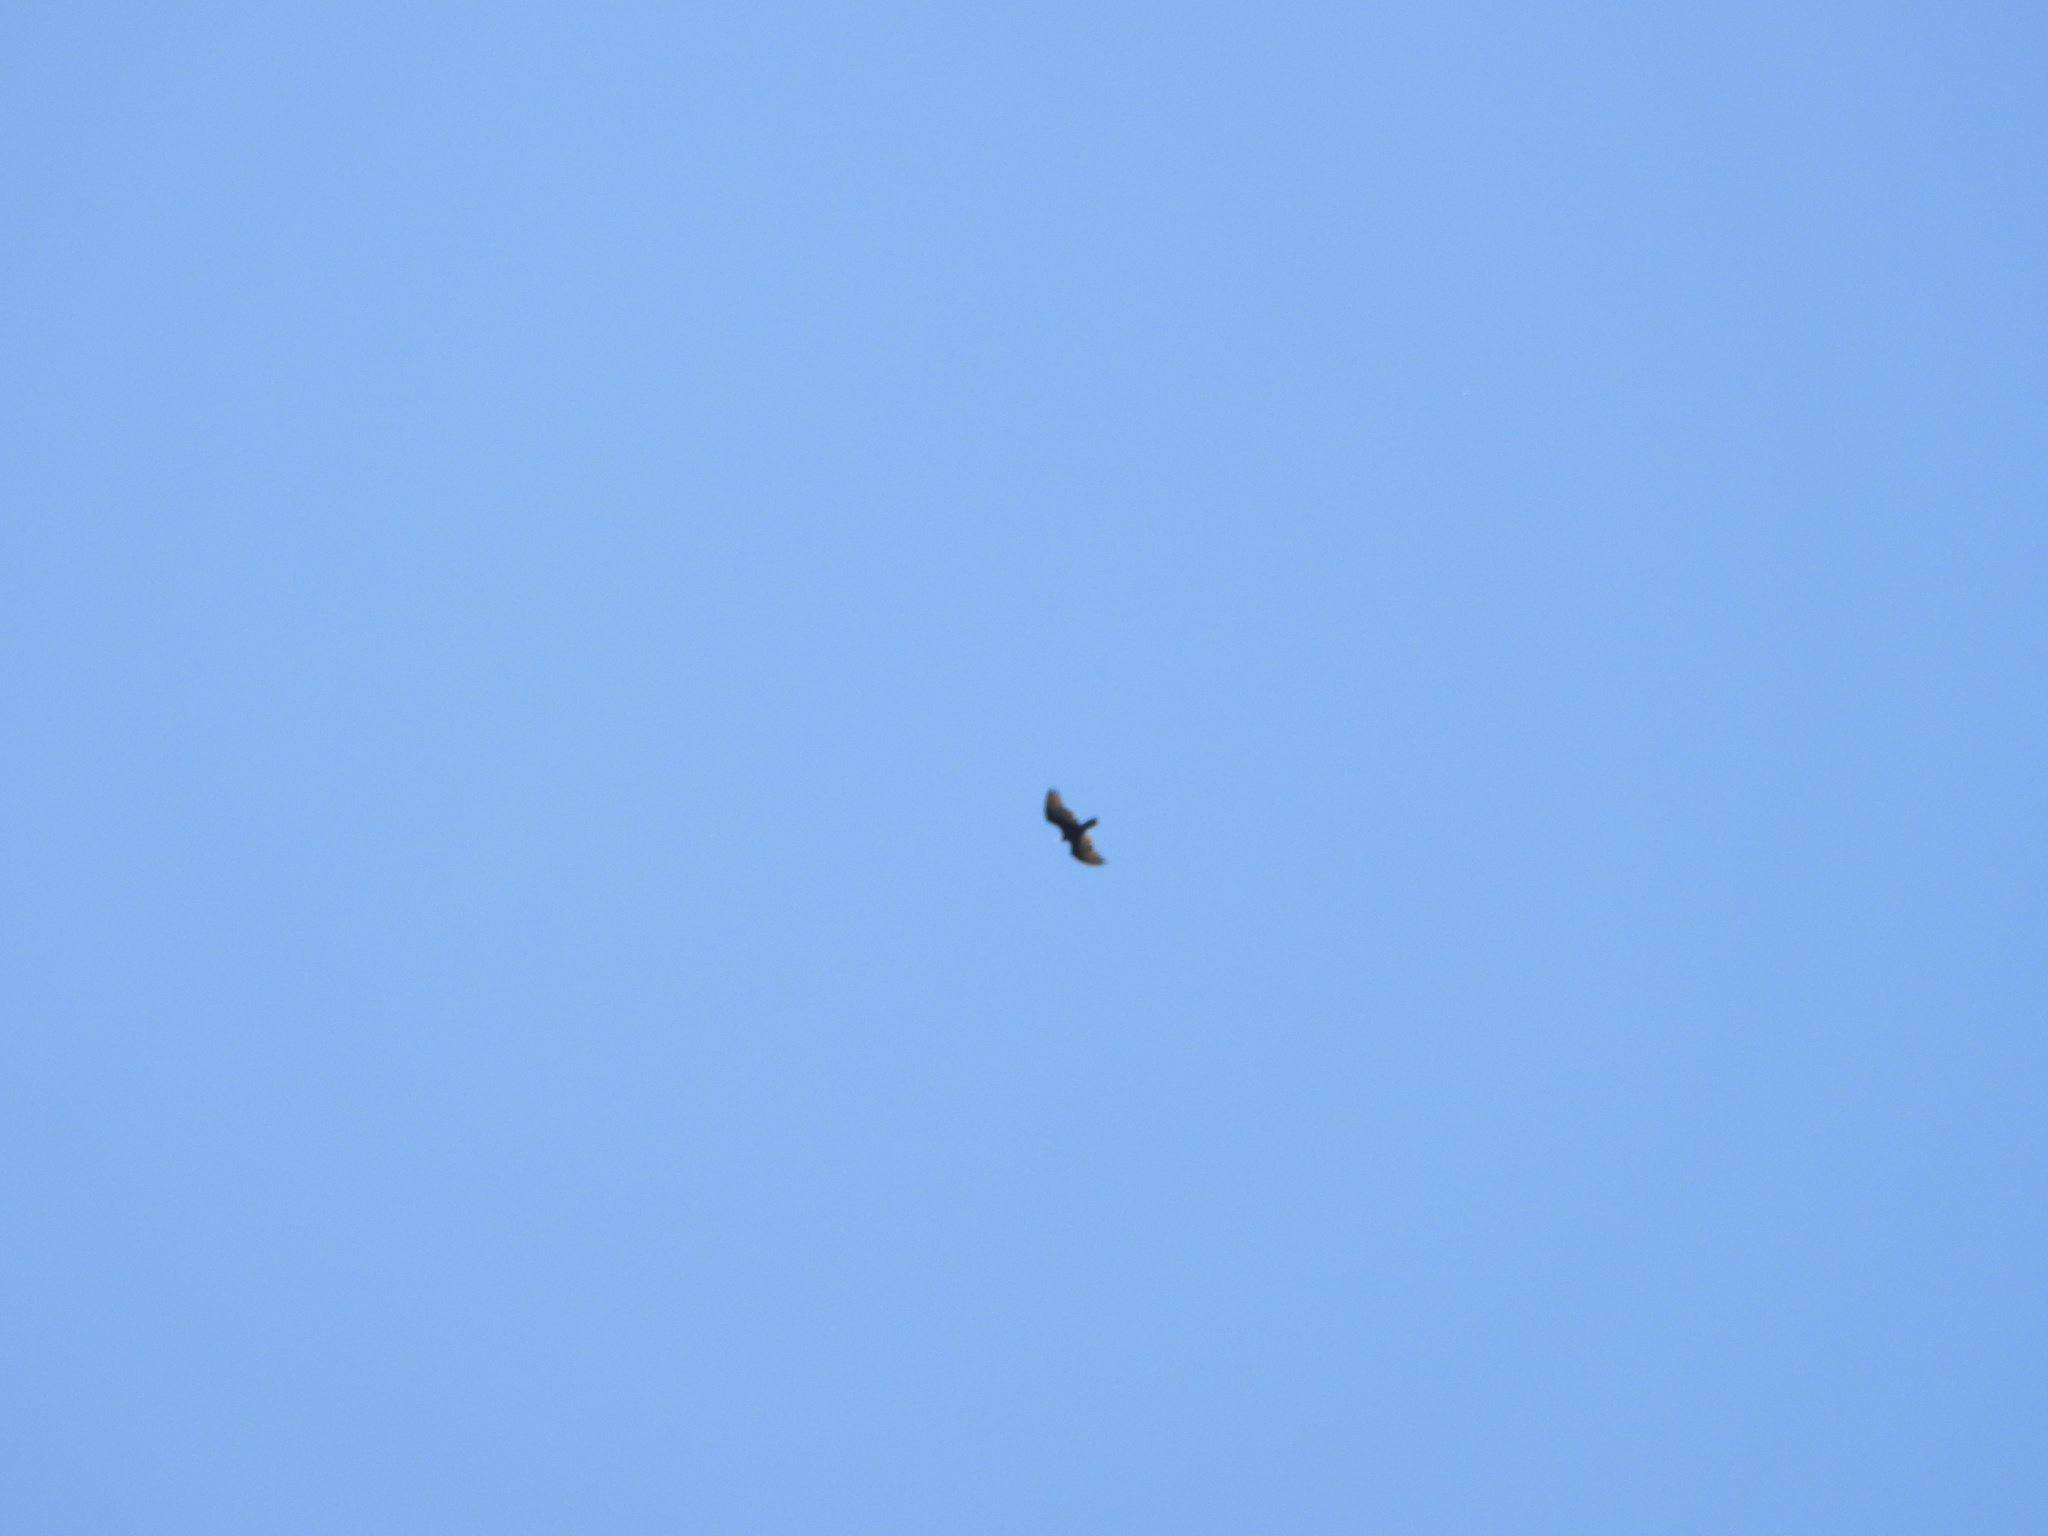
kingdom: Animalia
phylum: Chordata
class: Aves
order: Accipitriformes
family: Cathartidae
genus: Cathartes
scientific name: Cathartes aura
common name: Turkey vulture
